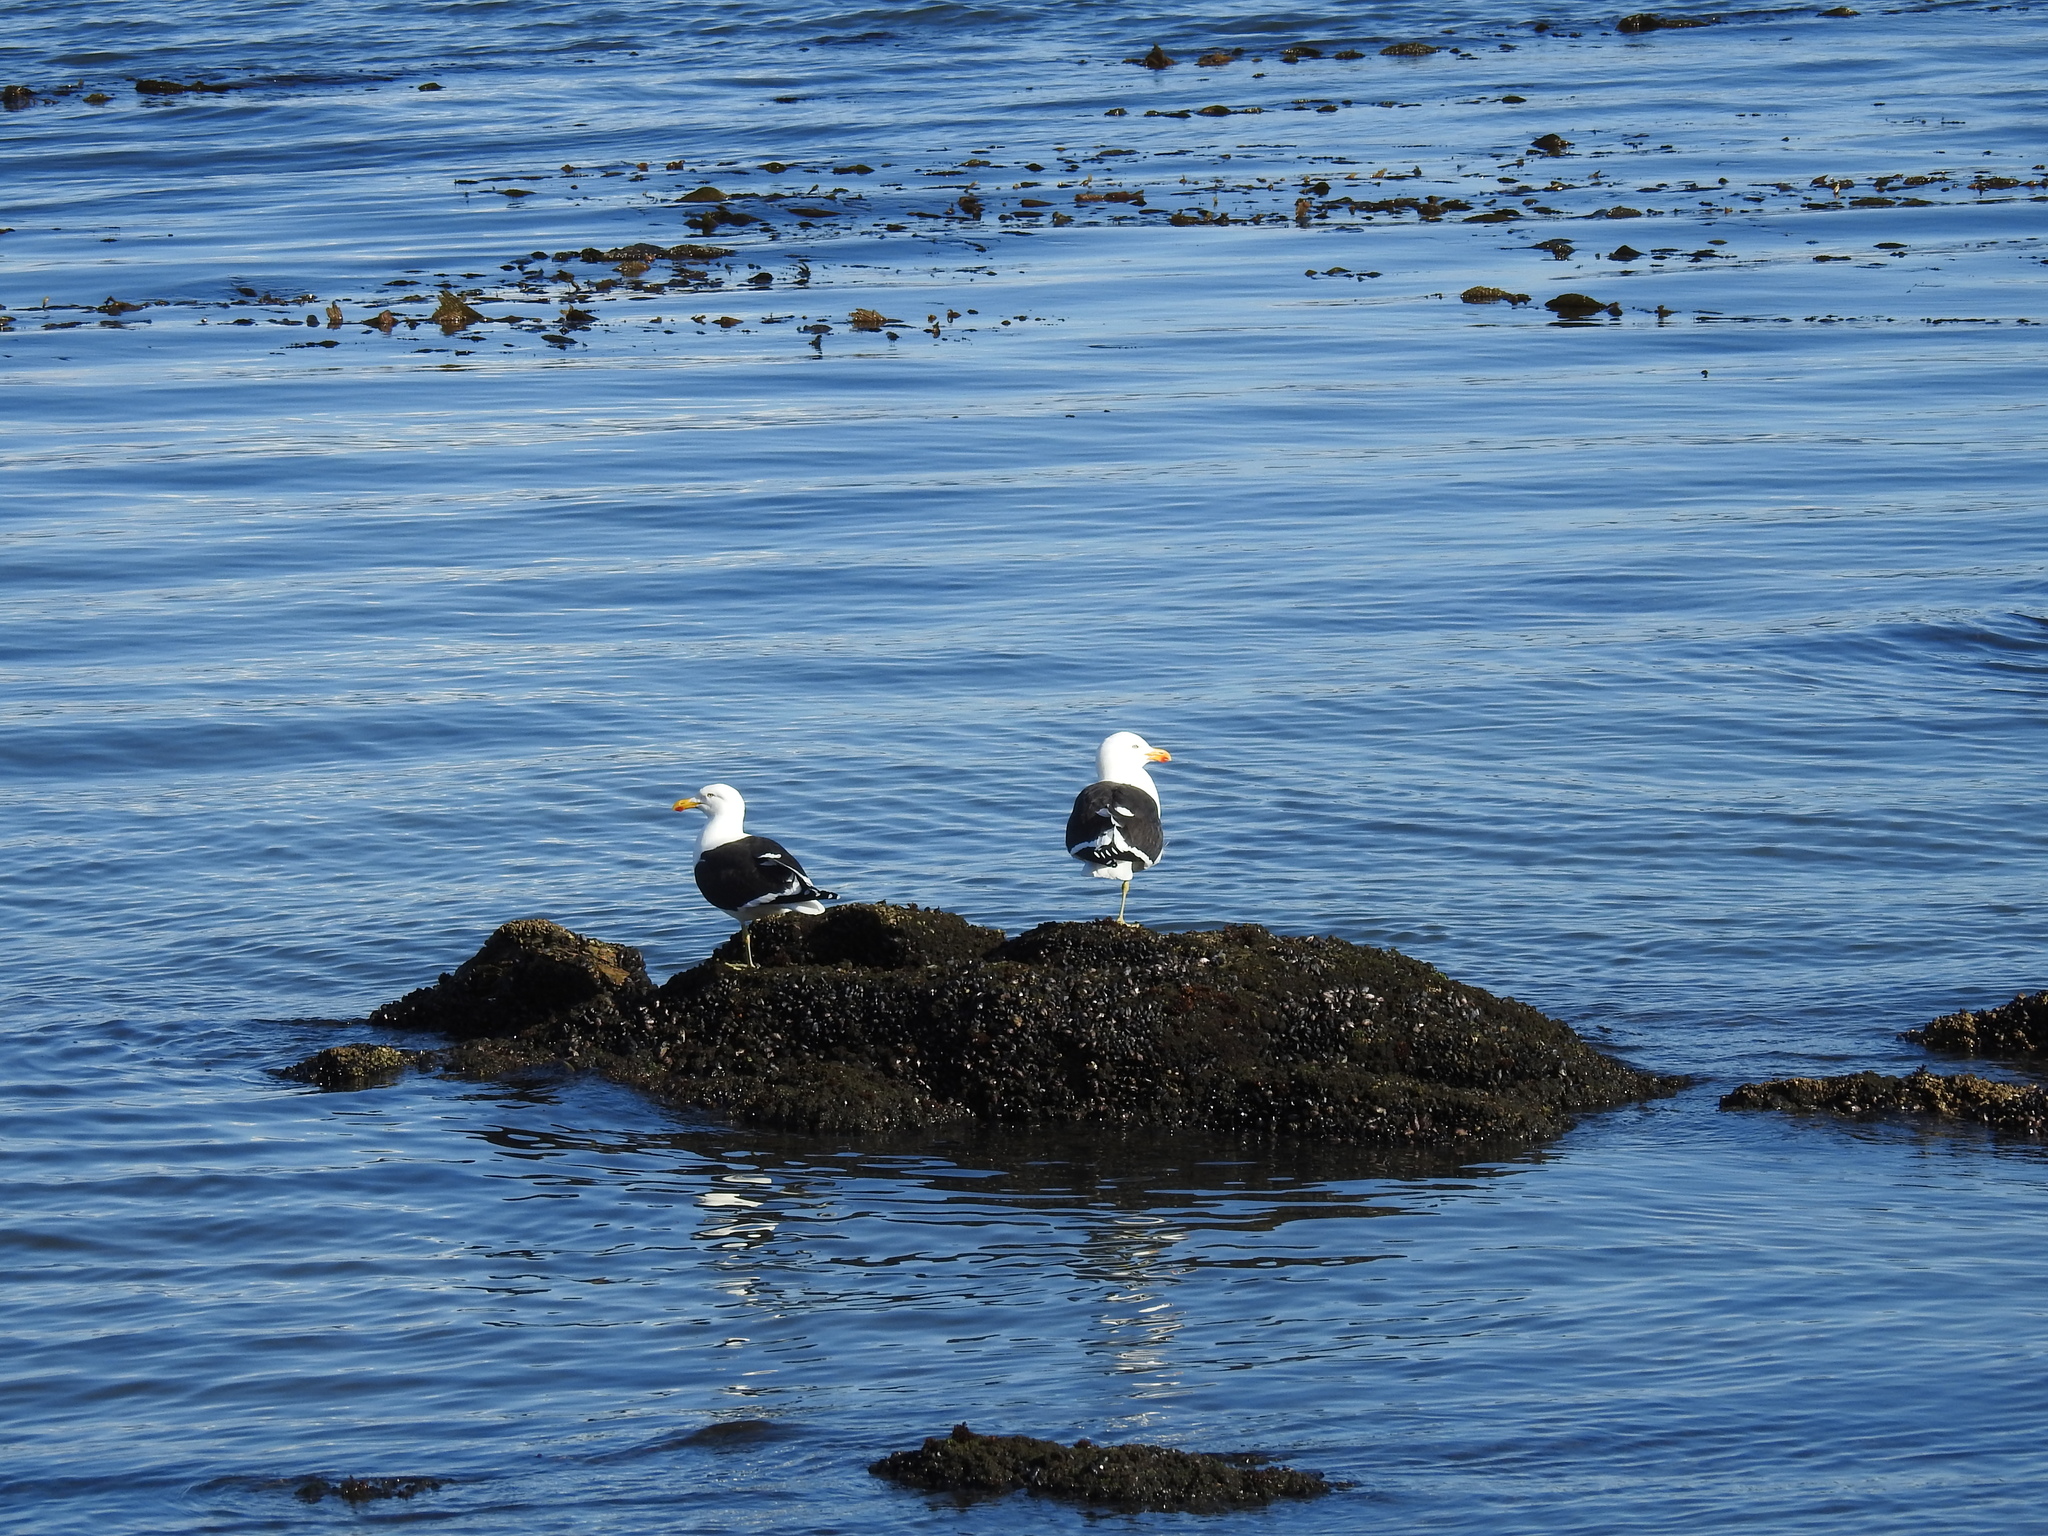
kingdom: Animalia
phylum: Chordata
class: Aves
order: Charadriiformes
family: Laridae
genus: Larus
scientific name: Larus dominicanus
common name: Kelp gull
